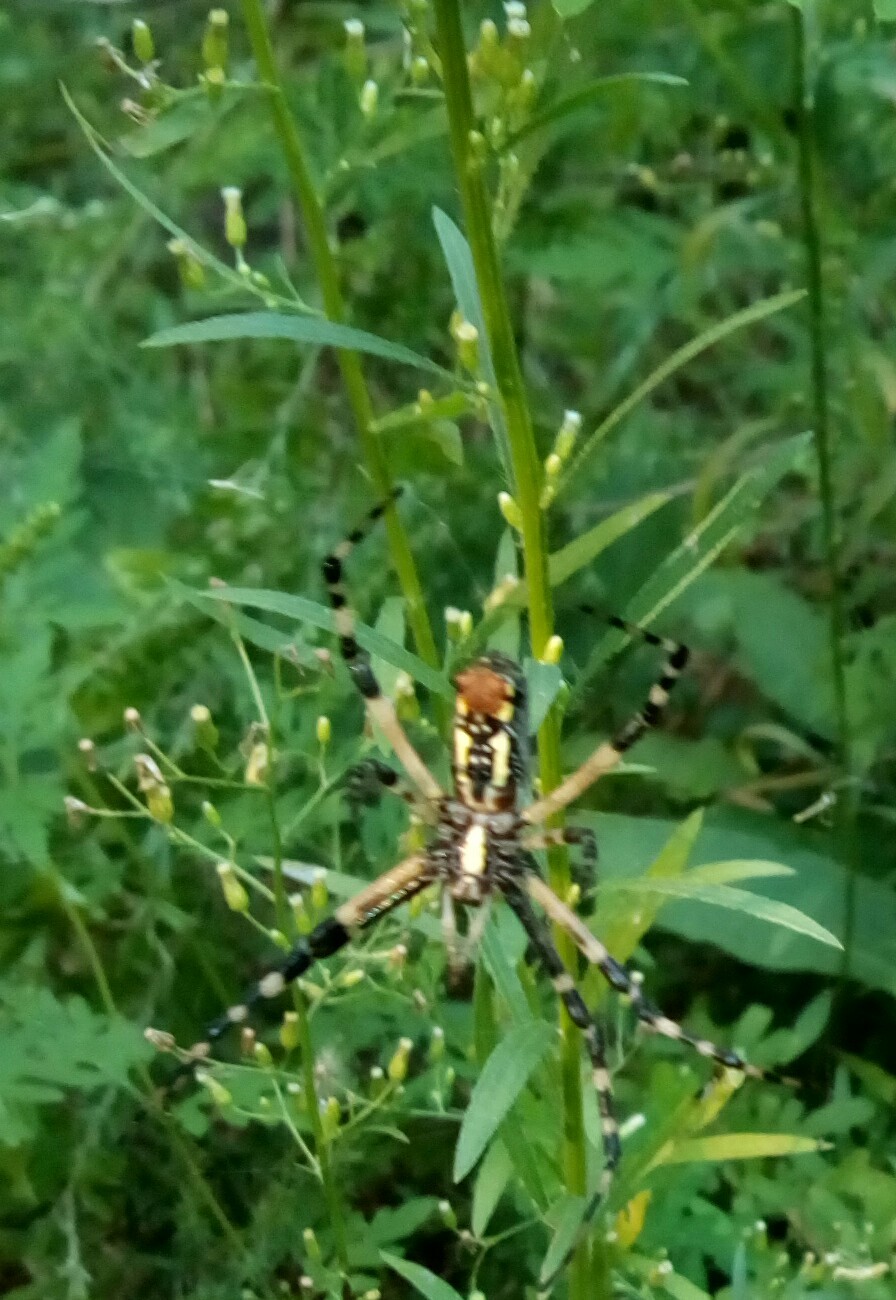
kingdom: Animalia
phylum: Arthropoda
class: Arachnida
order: Araneae
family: Araneidae
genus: Argiope
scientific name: Argiope aurantia
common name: Orb weavers
